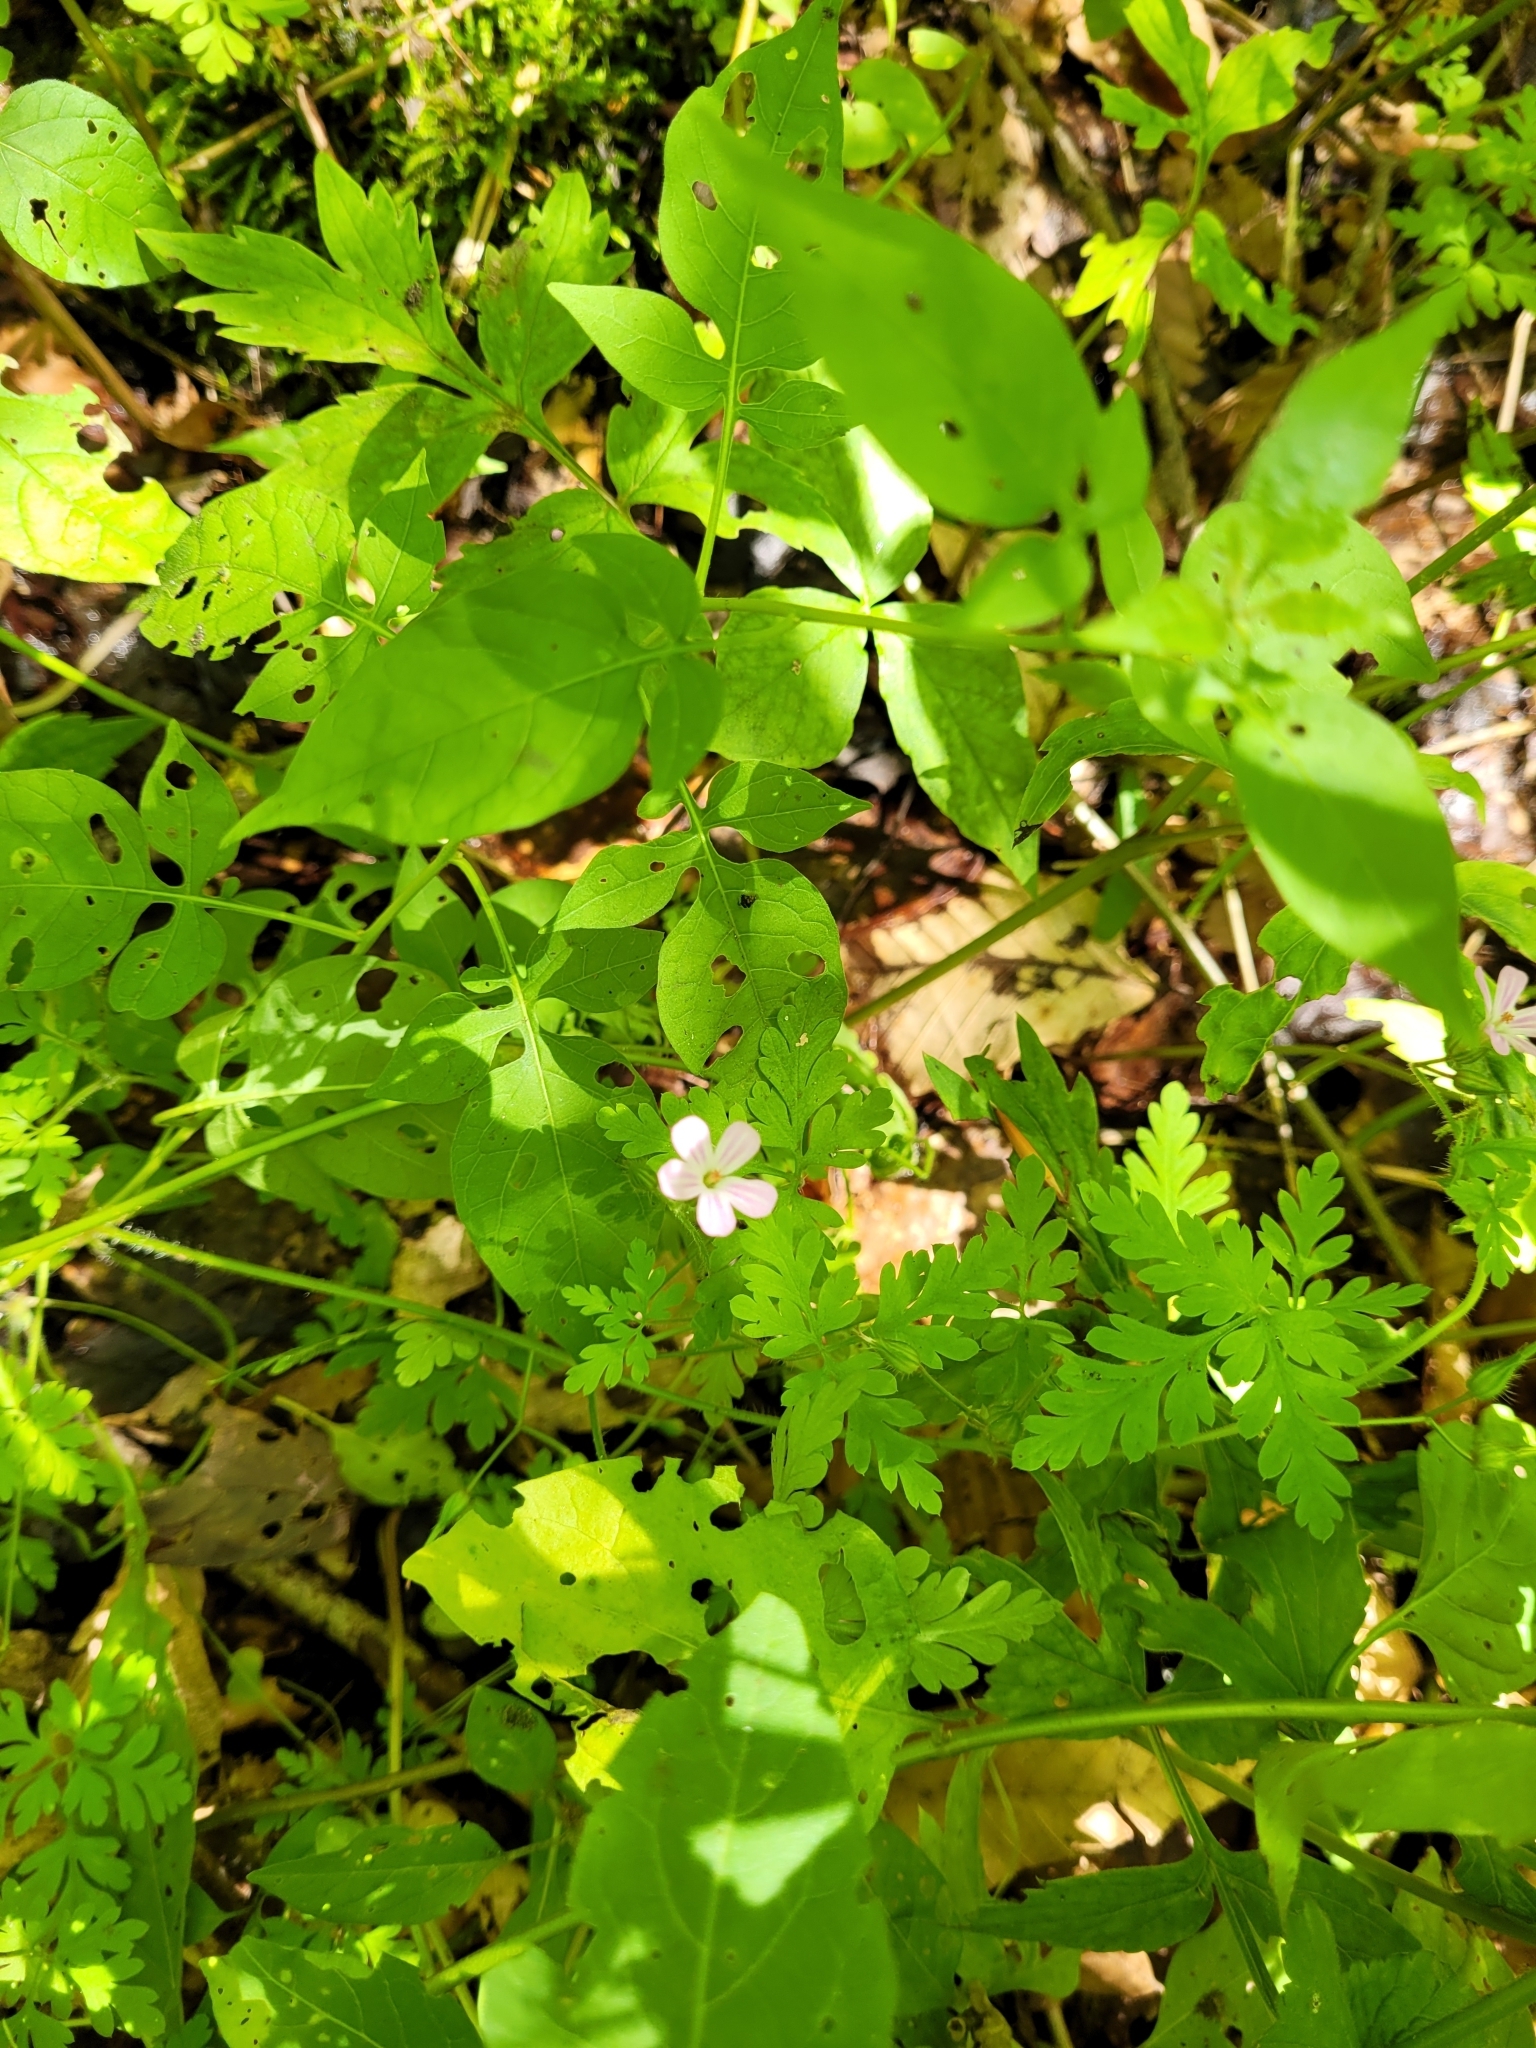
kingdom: Plantae
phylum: Tracheophyta
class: Magnoliopsida
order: Geraniales
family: Geraniaceae
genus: Geranium
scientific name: Geranium robertianum
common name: Herb-robert
